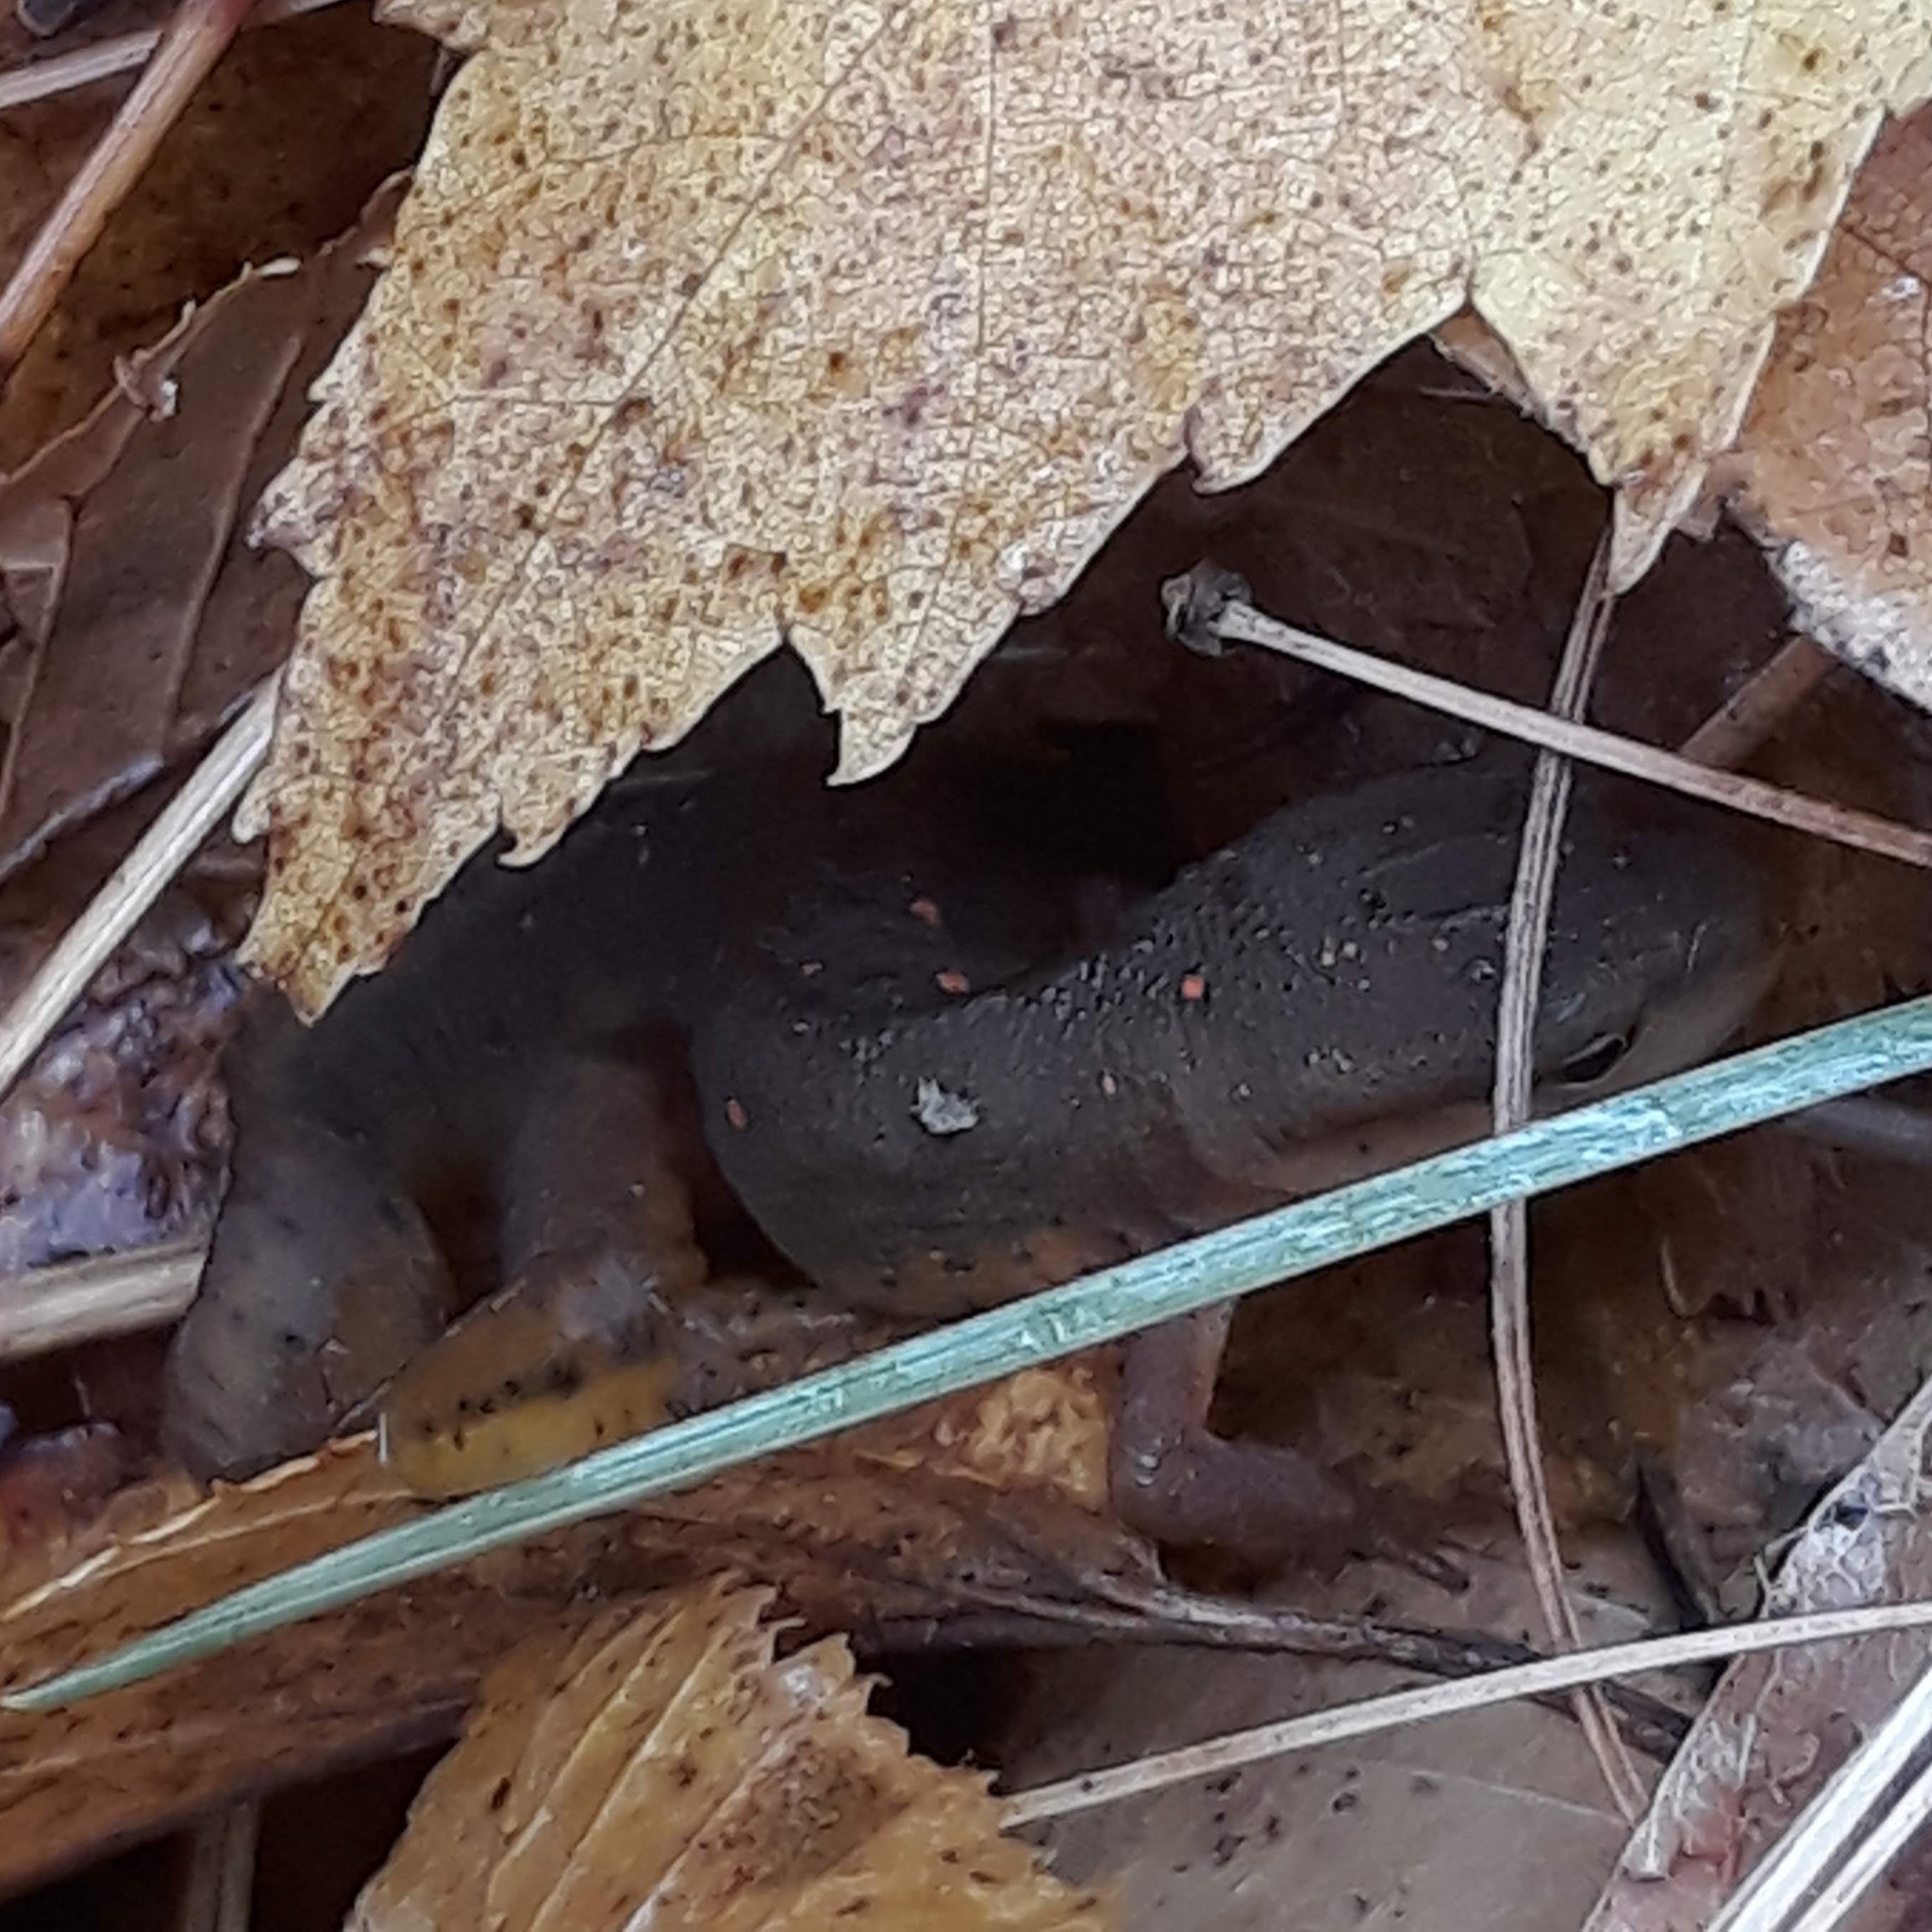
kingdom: Animalia
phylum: Chordata
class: Amphibia
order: Caudata
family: Salamandridae
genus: Notophthalmus
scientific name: Notophthalmus viridescens
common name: Eastern newt
